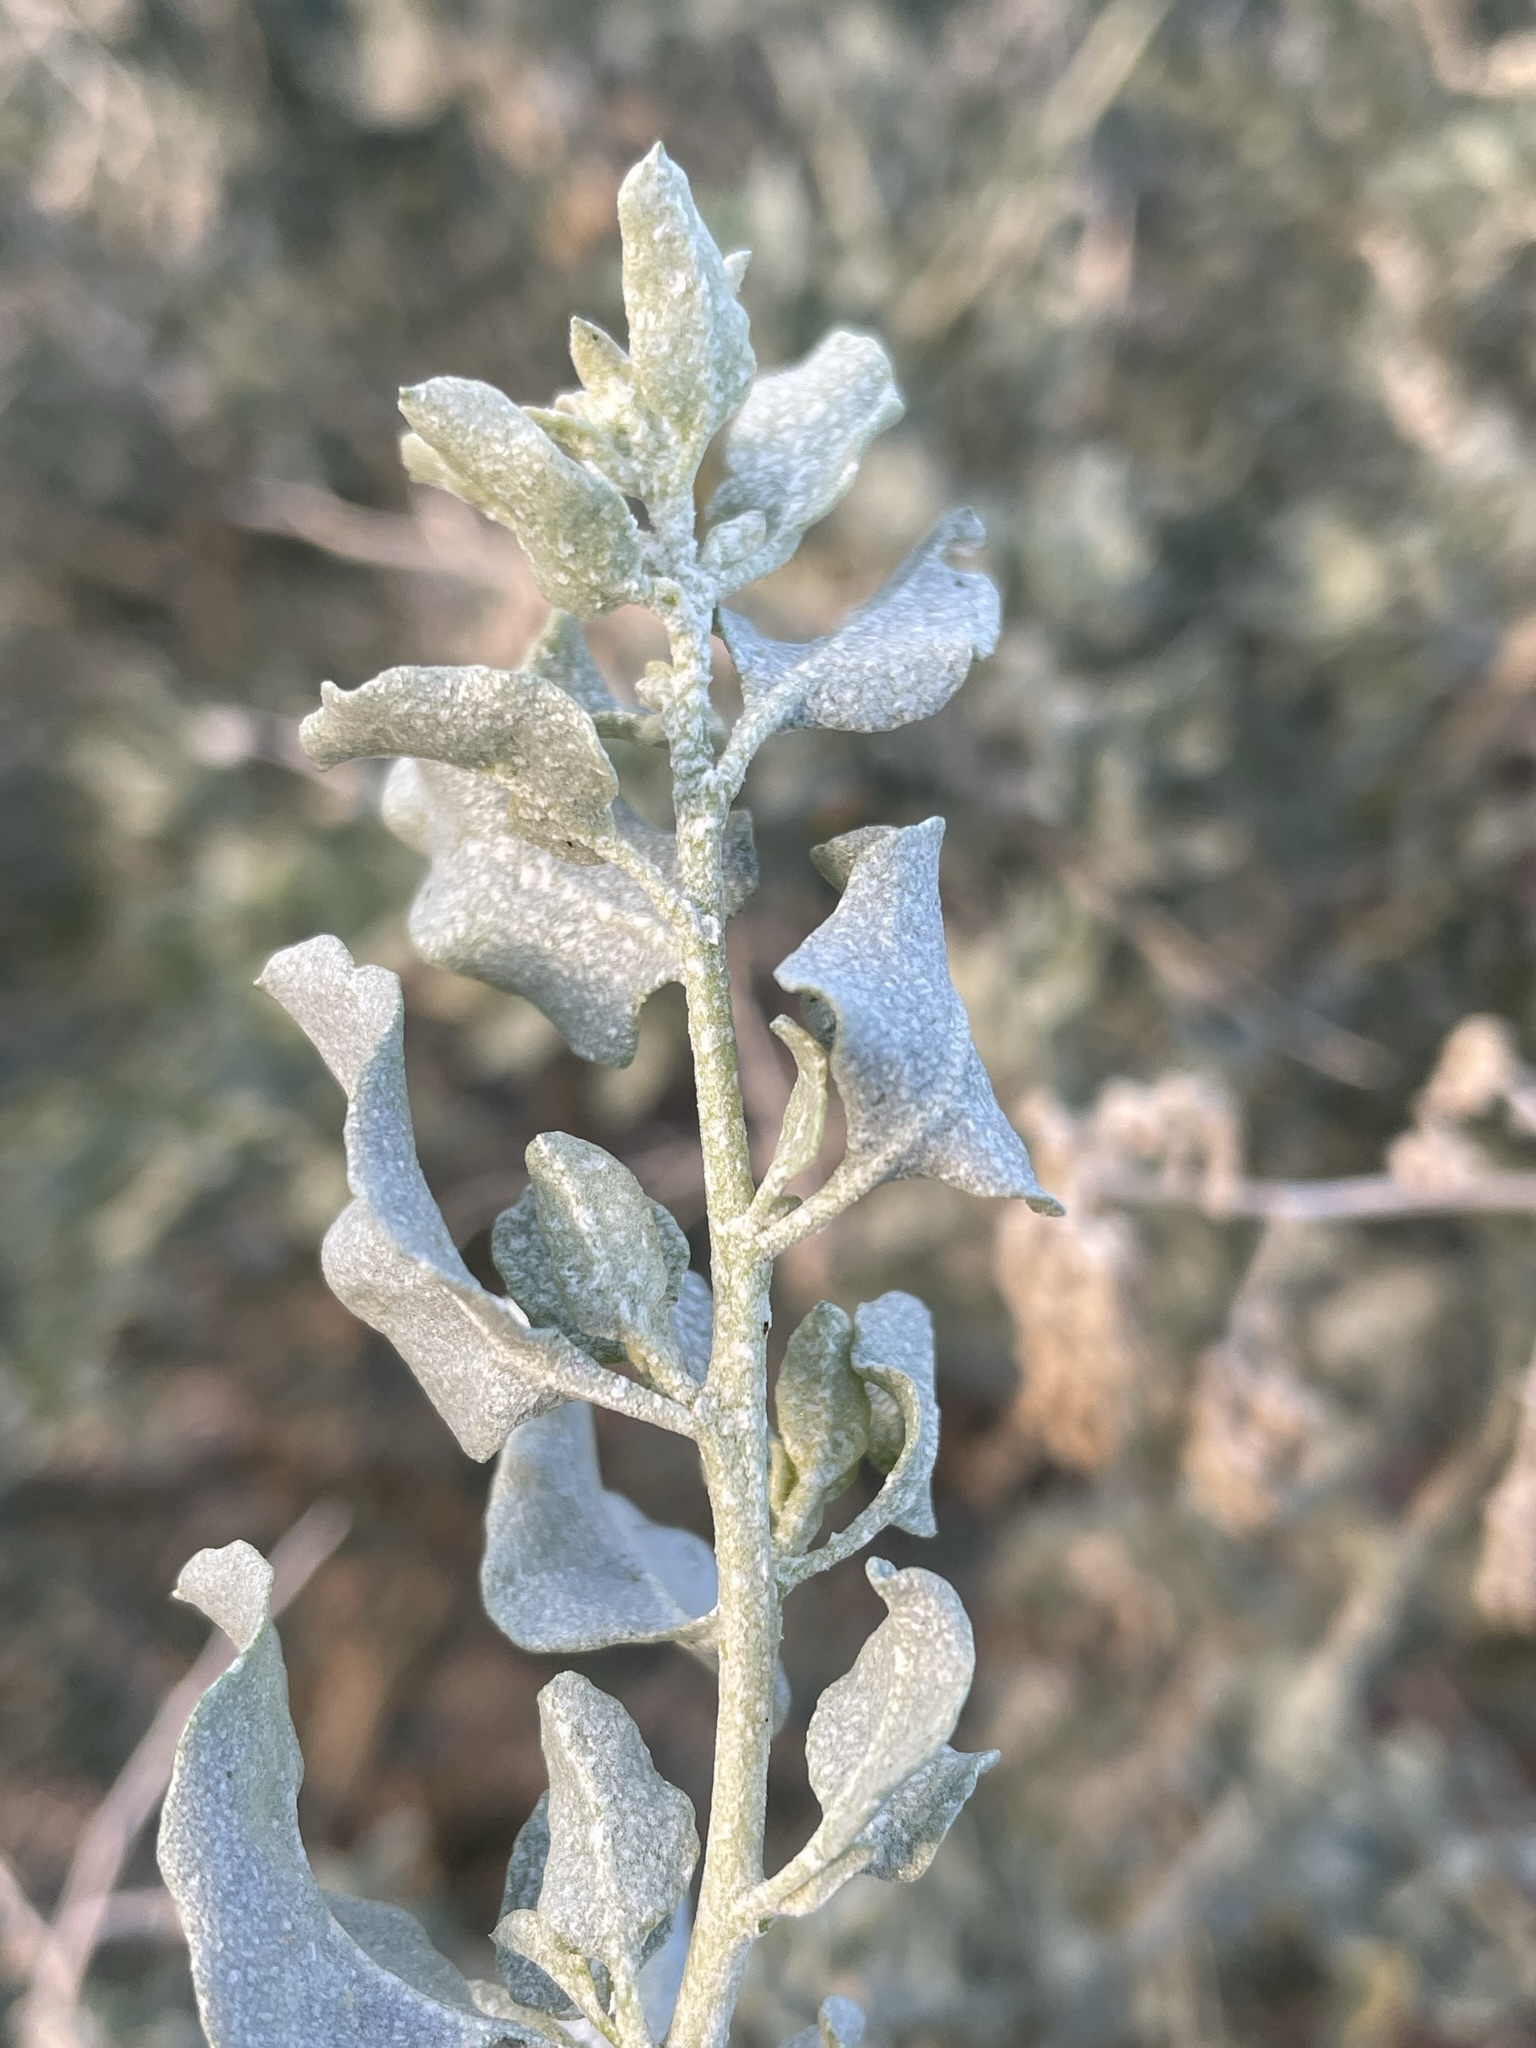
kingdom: Plantae
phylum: Tracheophyta
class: Magnoliopsida
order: Caryophyllales
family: Amaranthaceae
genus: Atriplex
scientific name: Atriplex lentiformis
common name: Big saltbush
